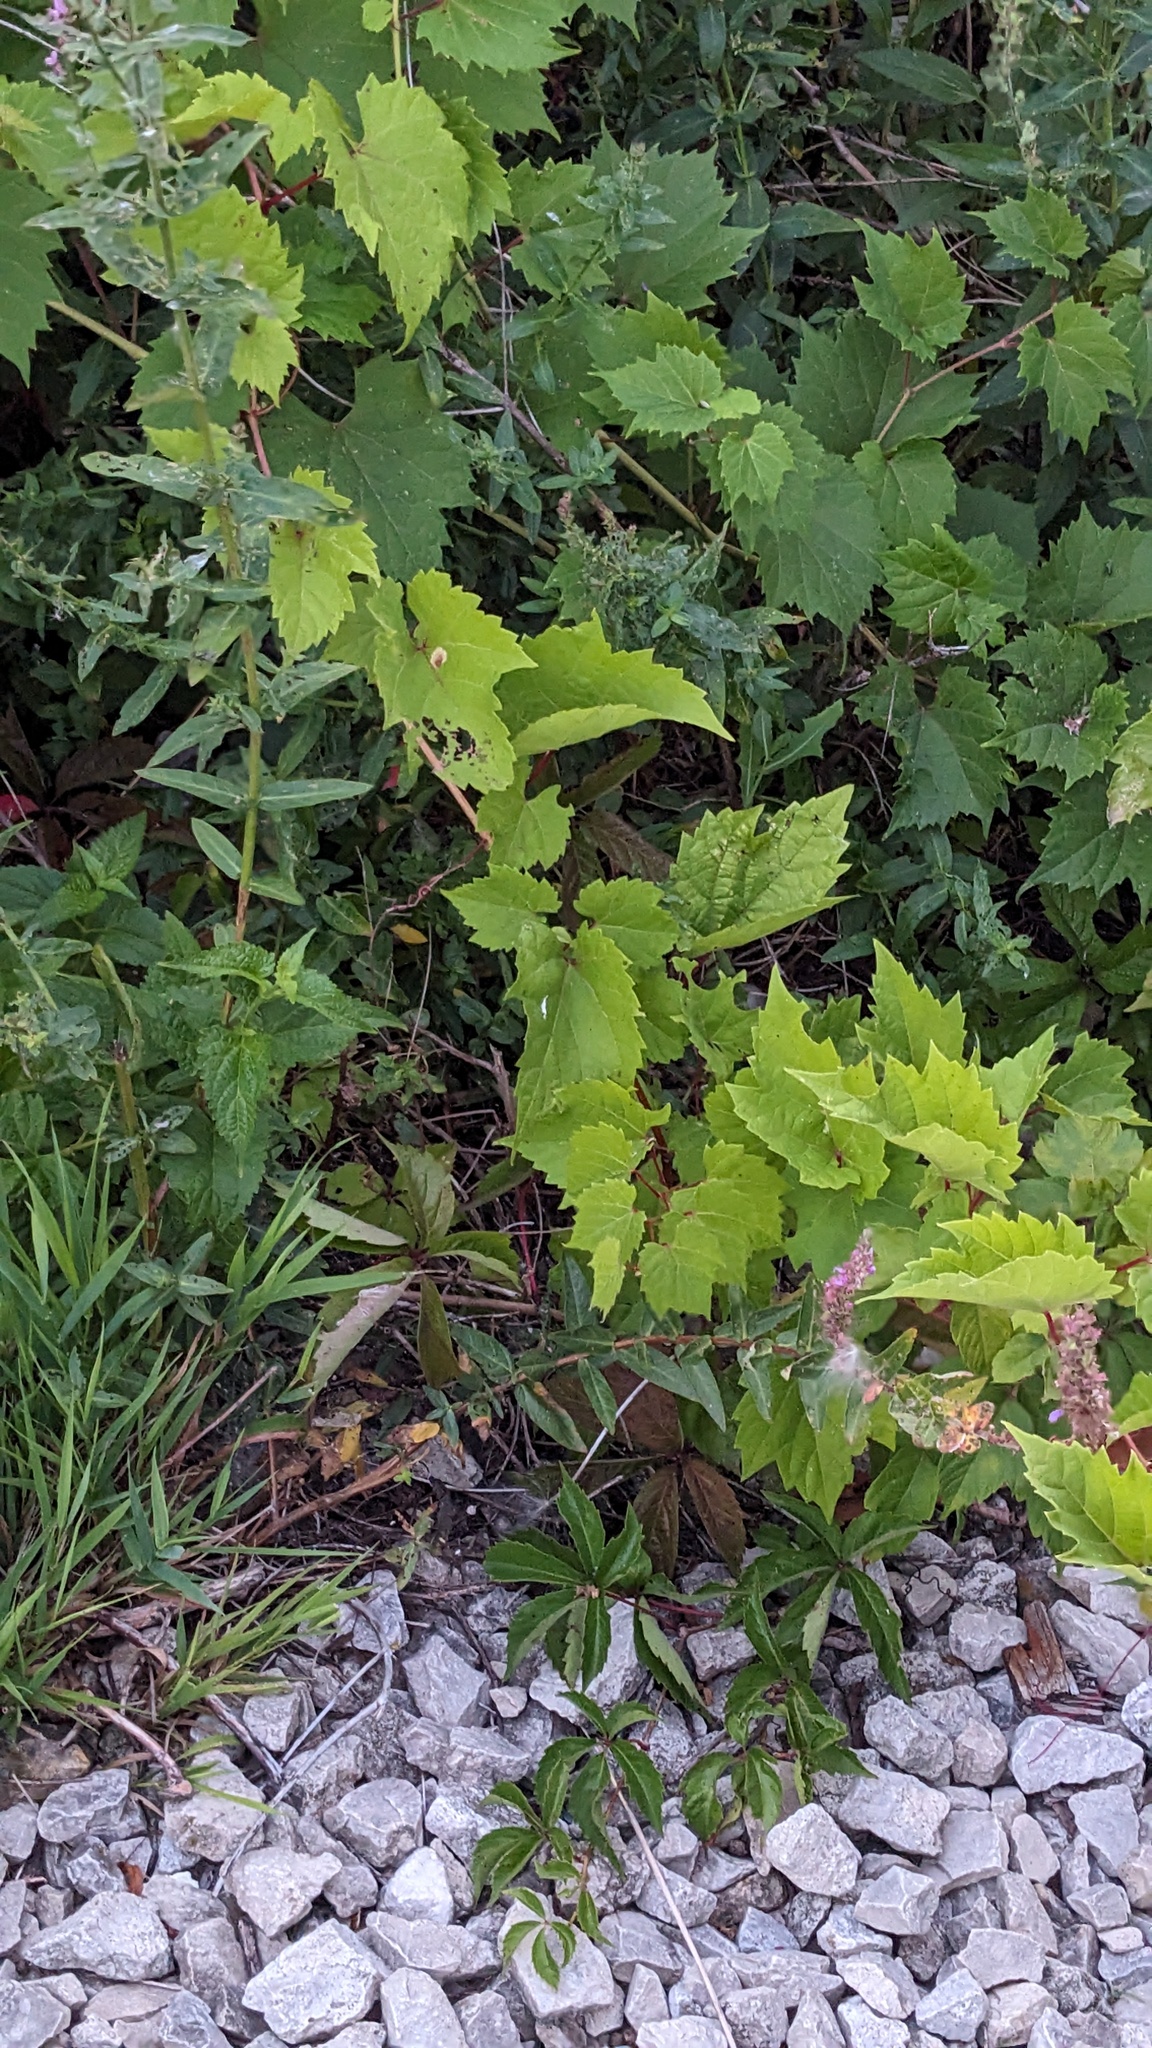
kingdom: Plantae
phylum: Tracheophyta
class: Magnoliopsida
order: Vitales
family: Vitaceae
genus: Vitis
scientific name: Vitis riparia
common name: Frost grape
